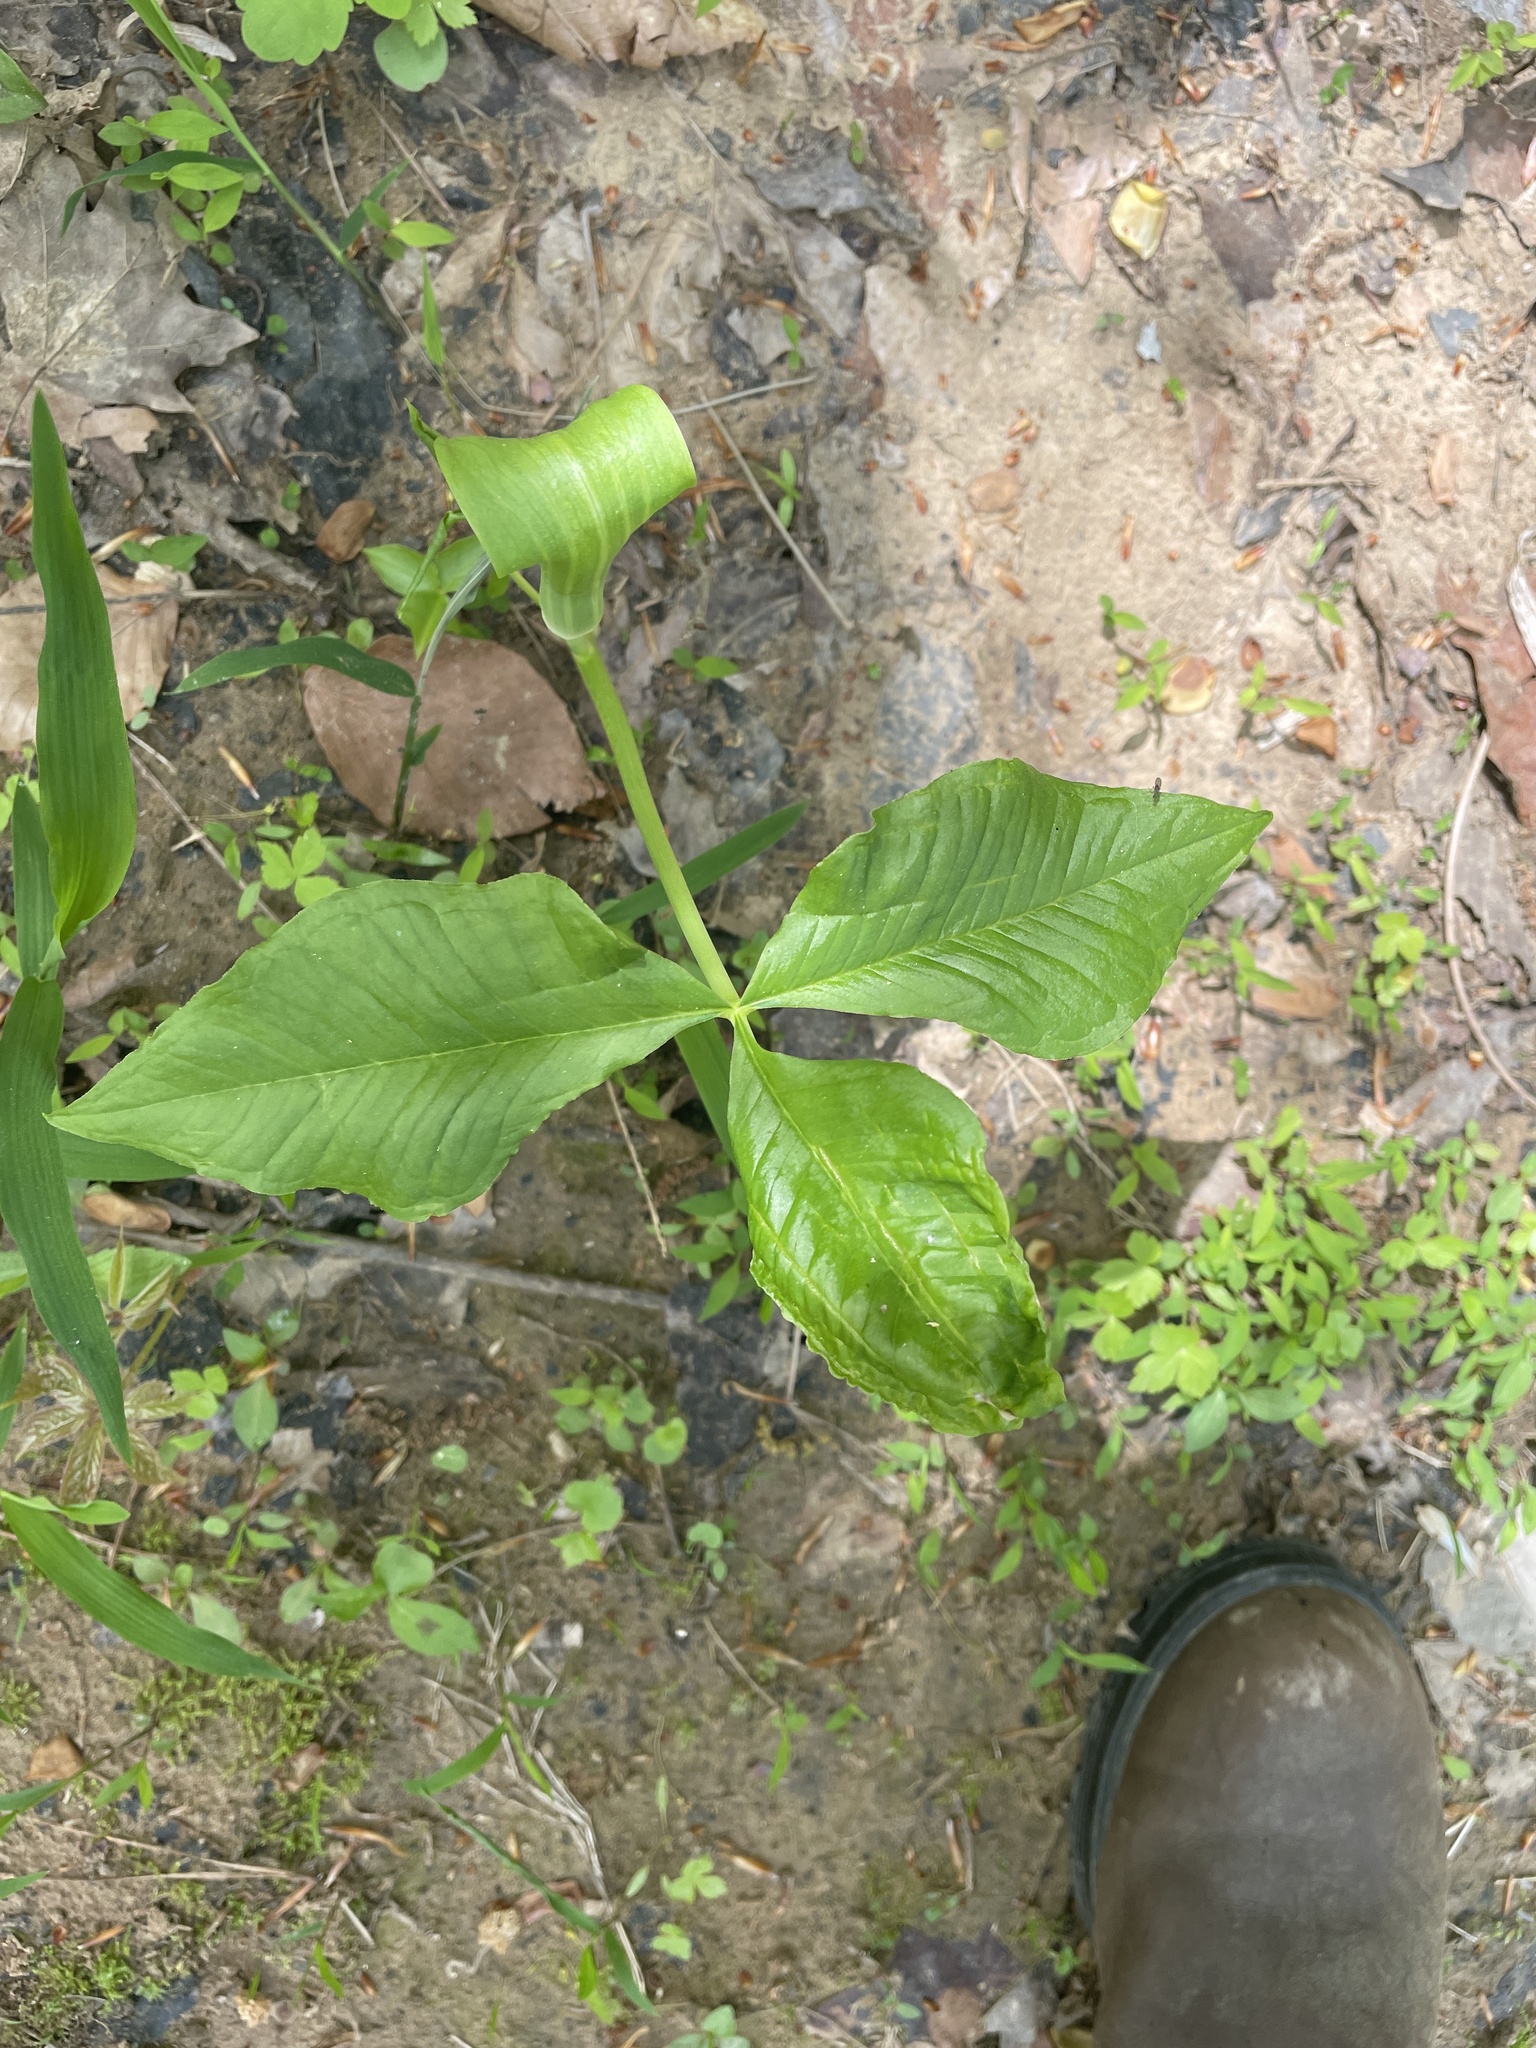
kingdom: Plantae
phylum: Tracheophyta
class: Liliopsida
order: Alismatales
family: Araceae
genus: Arisaema
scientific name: Arisaema triphyllum
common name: Jack-in-the-pulpit
